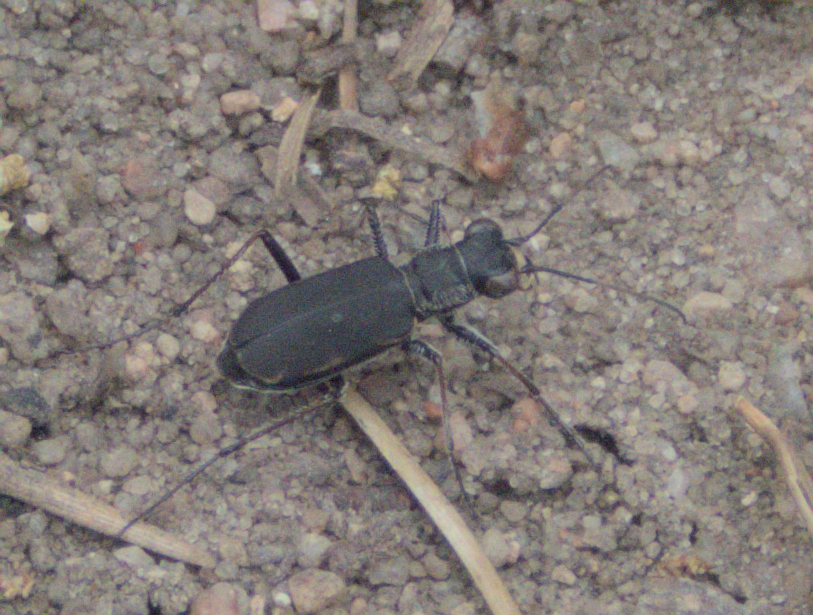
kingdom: Animalia
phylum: Arthropoda
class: Insecta
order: Coleoptera
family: Carabidae
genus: Cylindera
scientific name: Cylindera terricola
